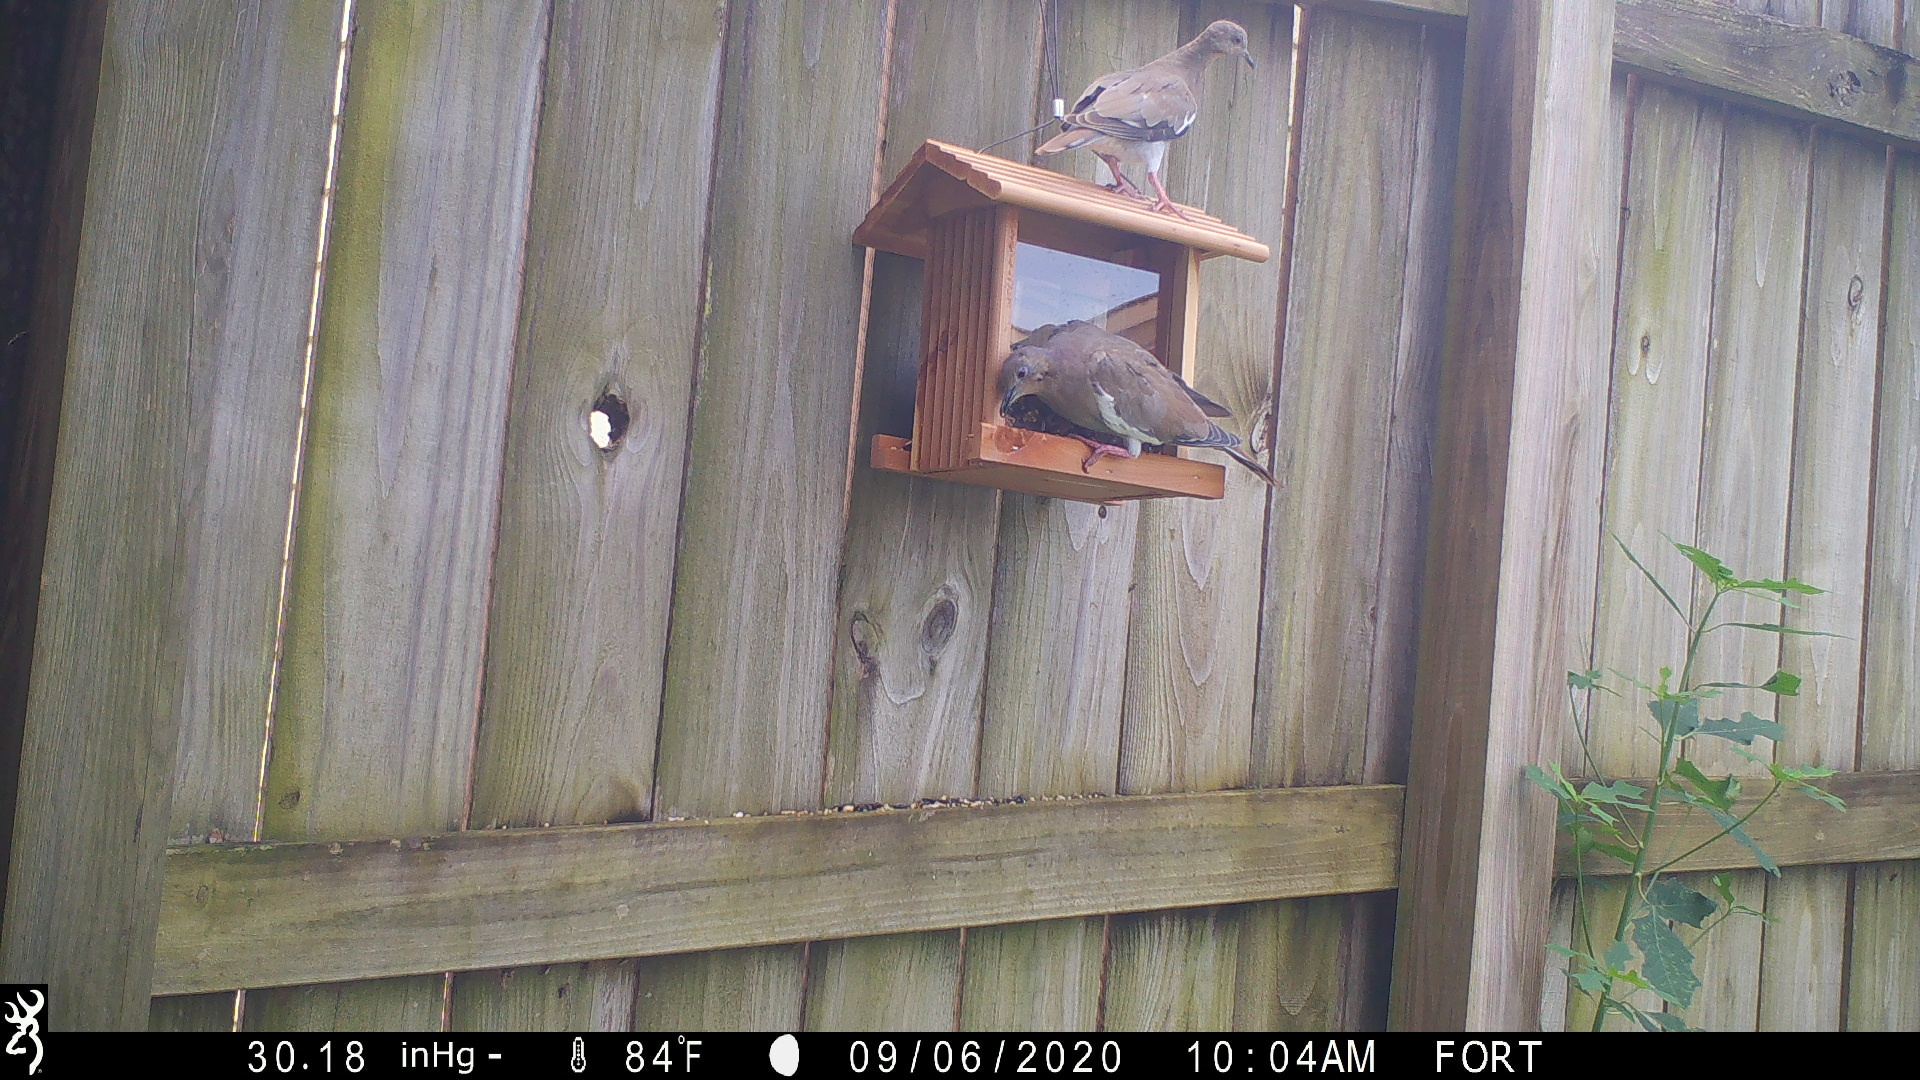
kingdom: Animalia
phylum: Chordata
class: Aves
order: Columbiformes
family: Columbidae
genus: Zenaida
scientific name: Zenaida asiatica
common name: White-winged dove
